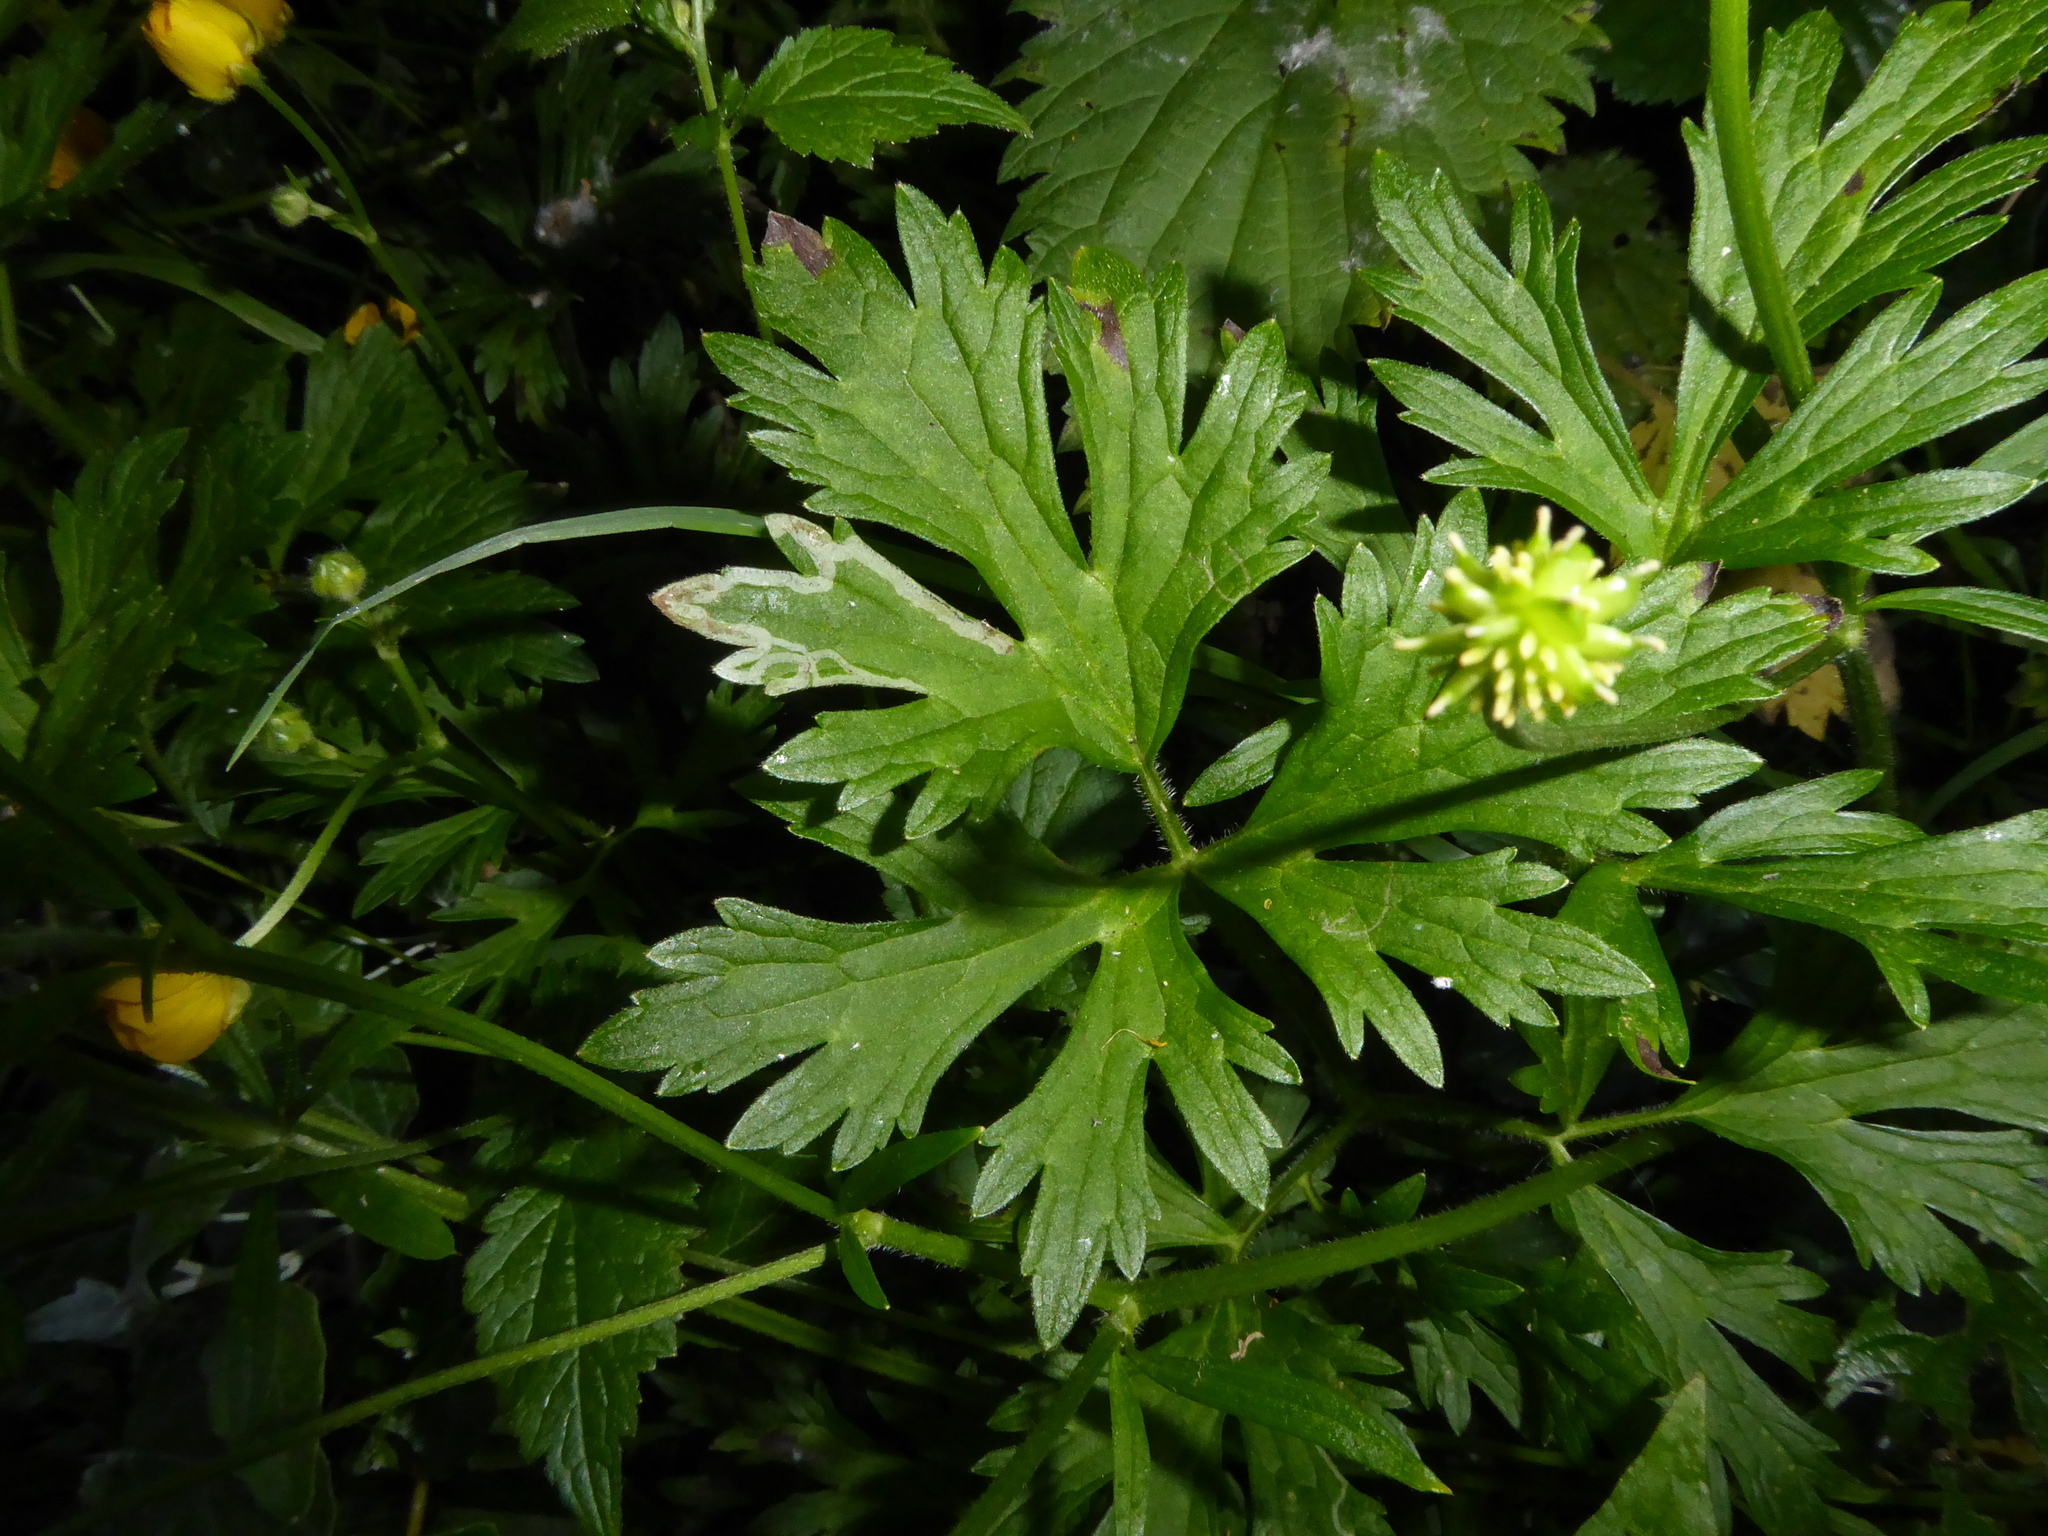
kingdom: Plantae
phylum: Tracheophyta
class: Magnoliopsida
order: Ranunculales
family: Ranunculaceae
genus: Ranunculus
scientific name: Ranunculus repens
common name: Creeping buttercup
